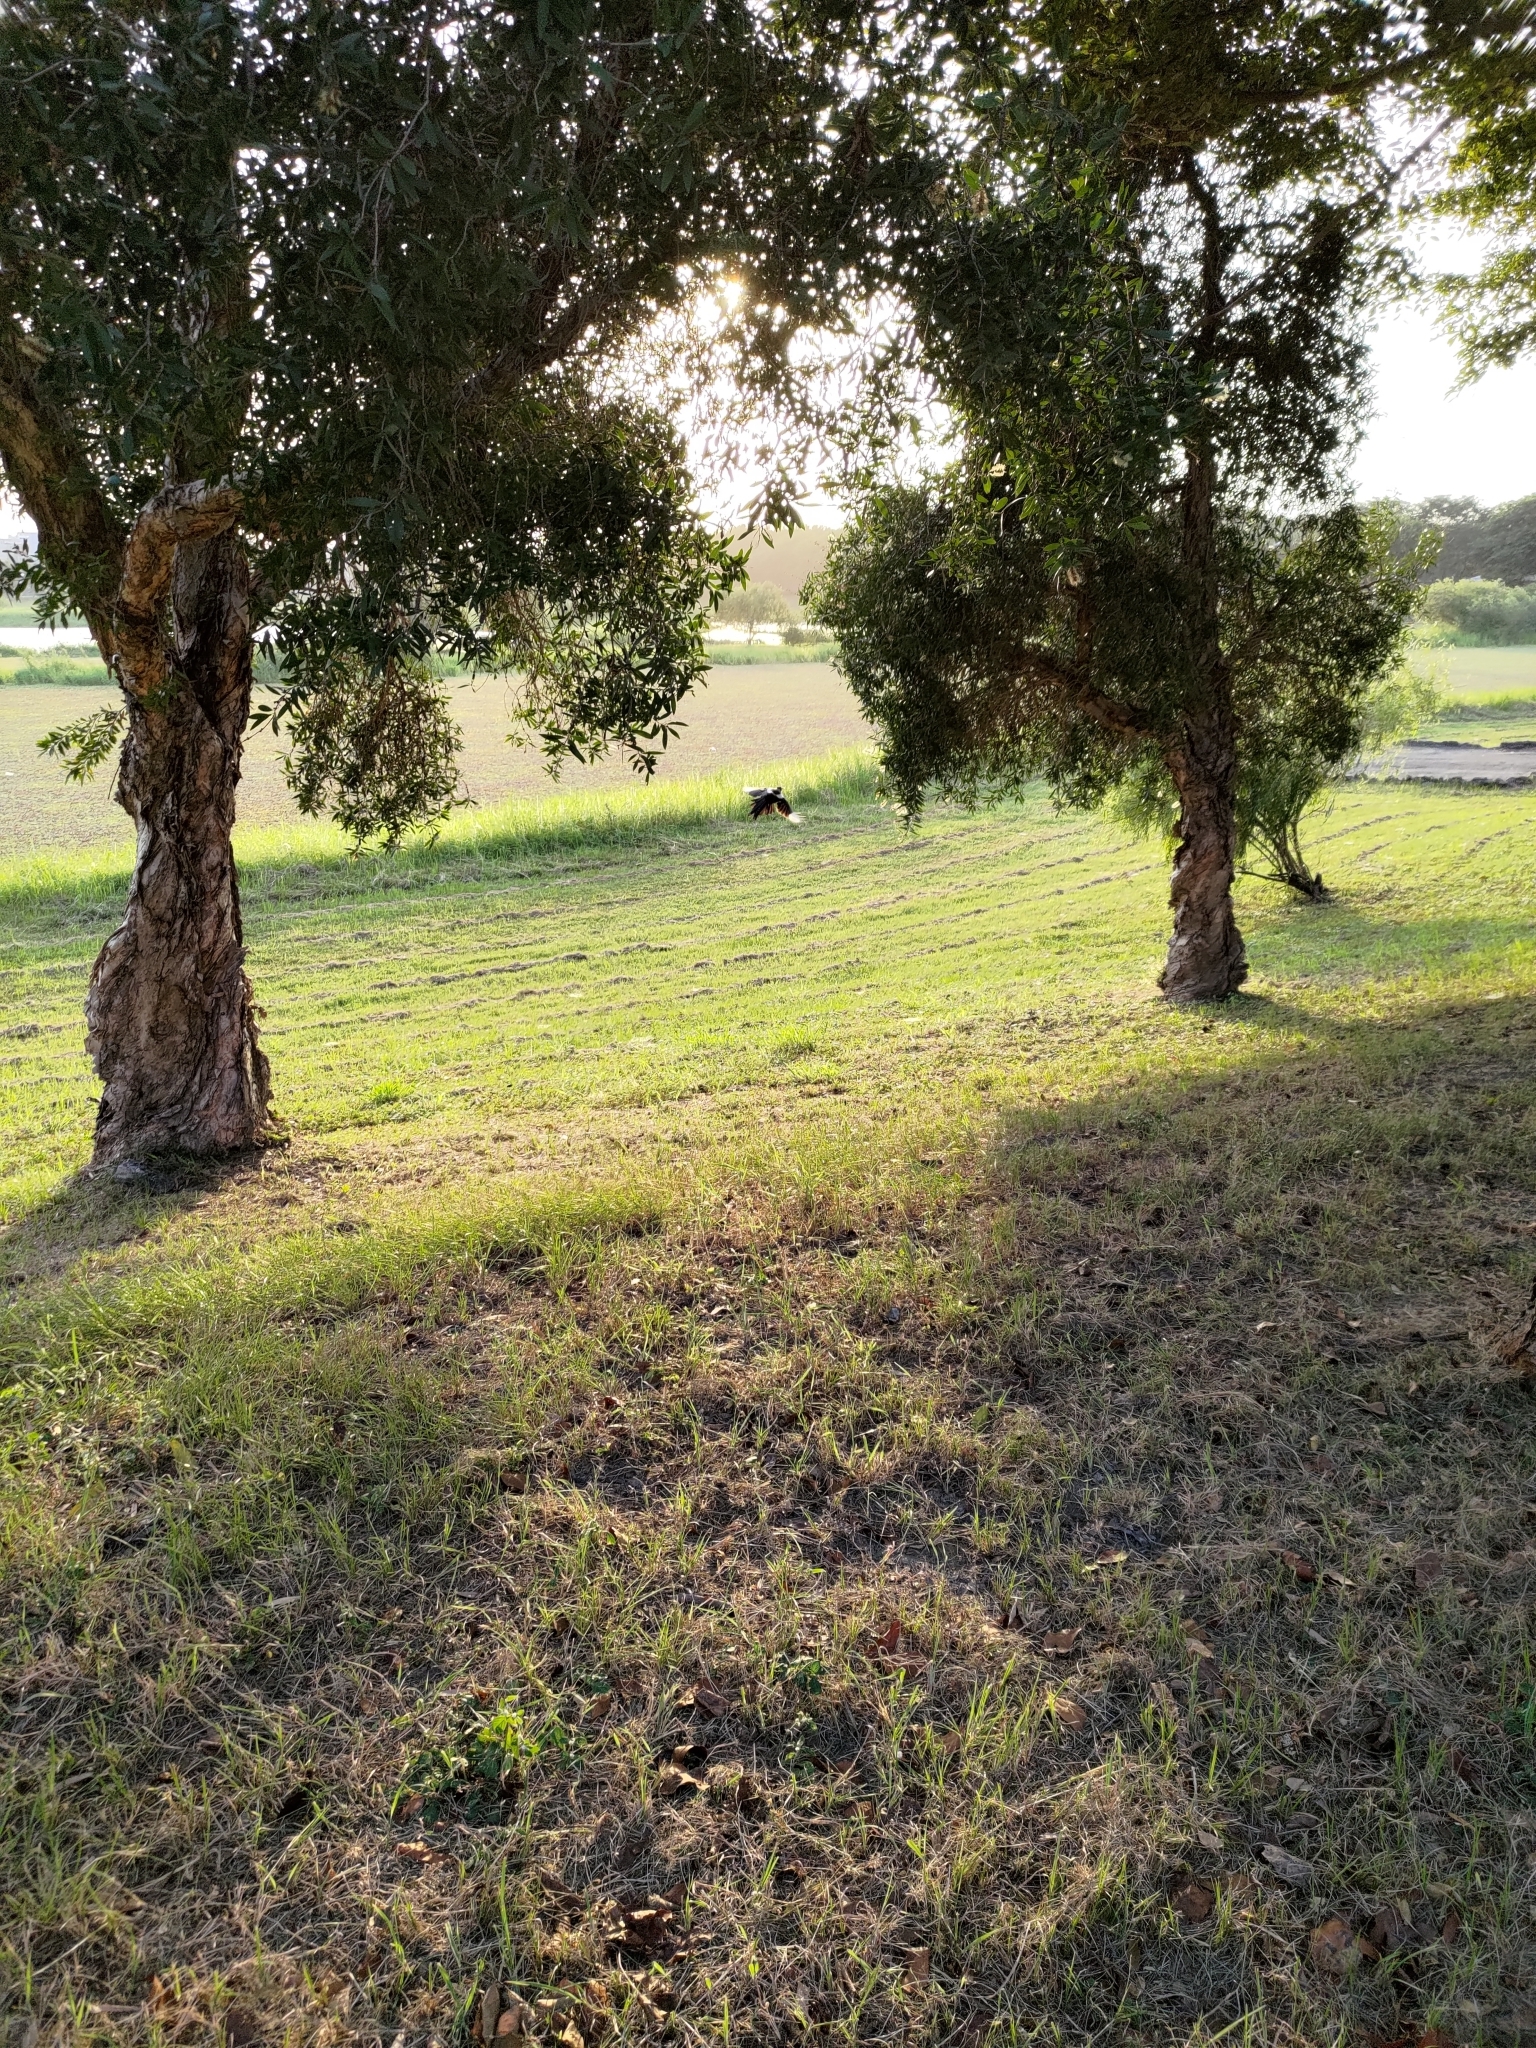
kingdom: Animalia
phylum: Chordata
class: Aves
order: Passeriformes
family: Corvidae
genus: Pica
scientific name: Pica serica
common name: Oriental magpie
